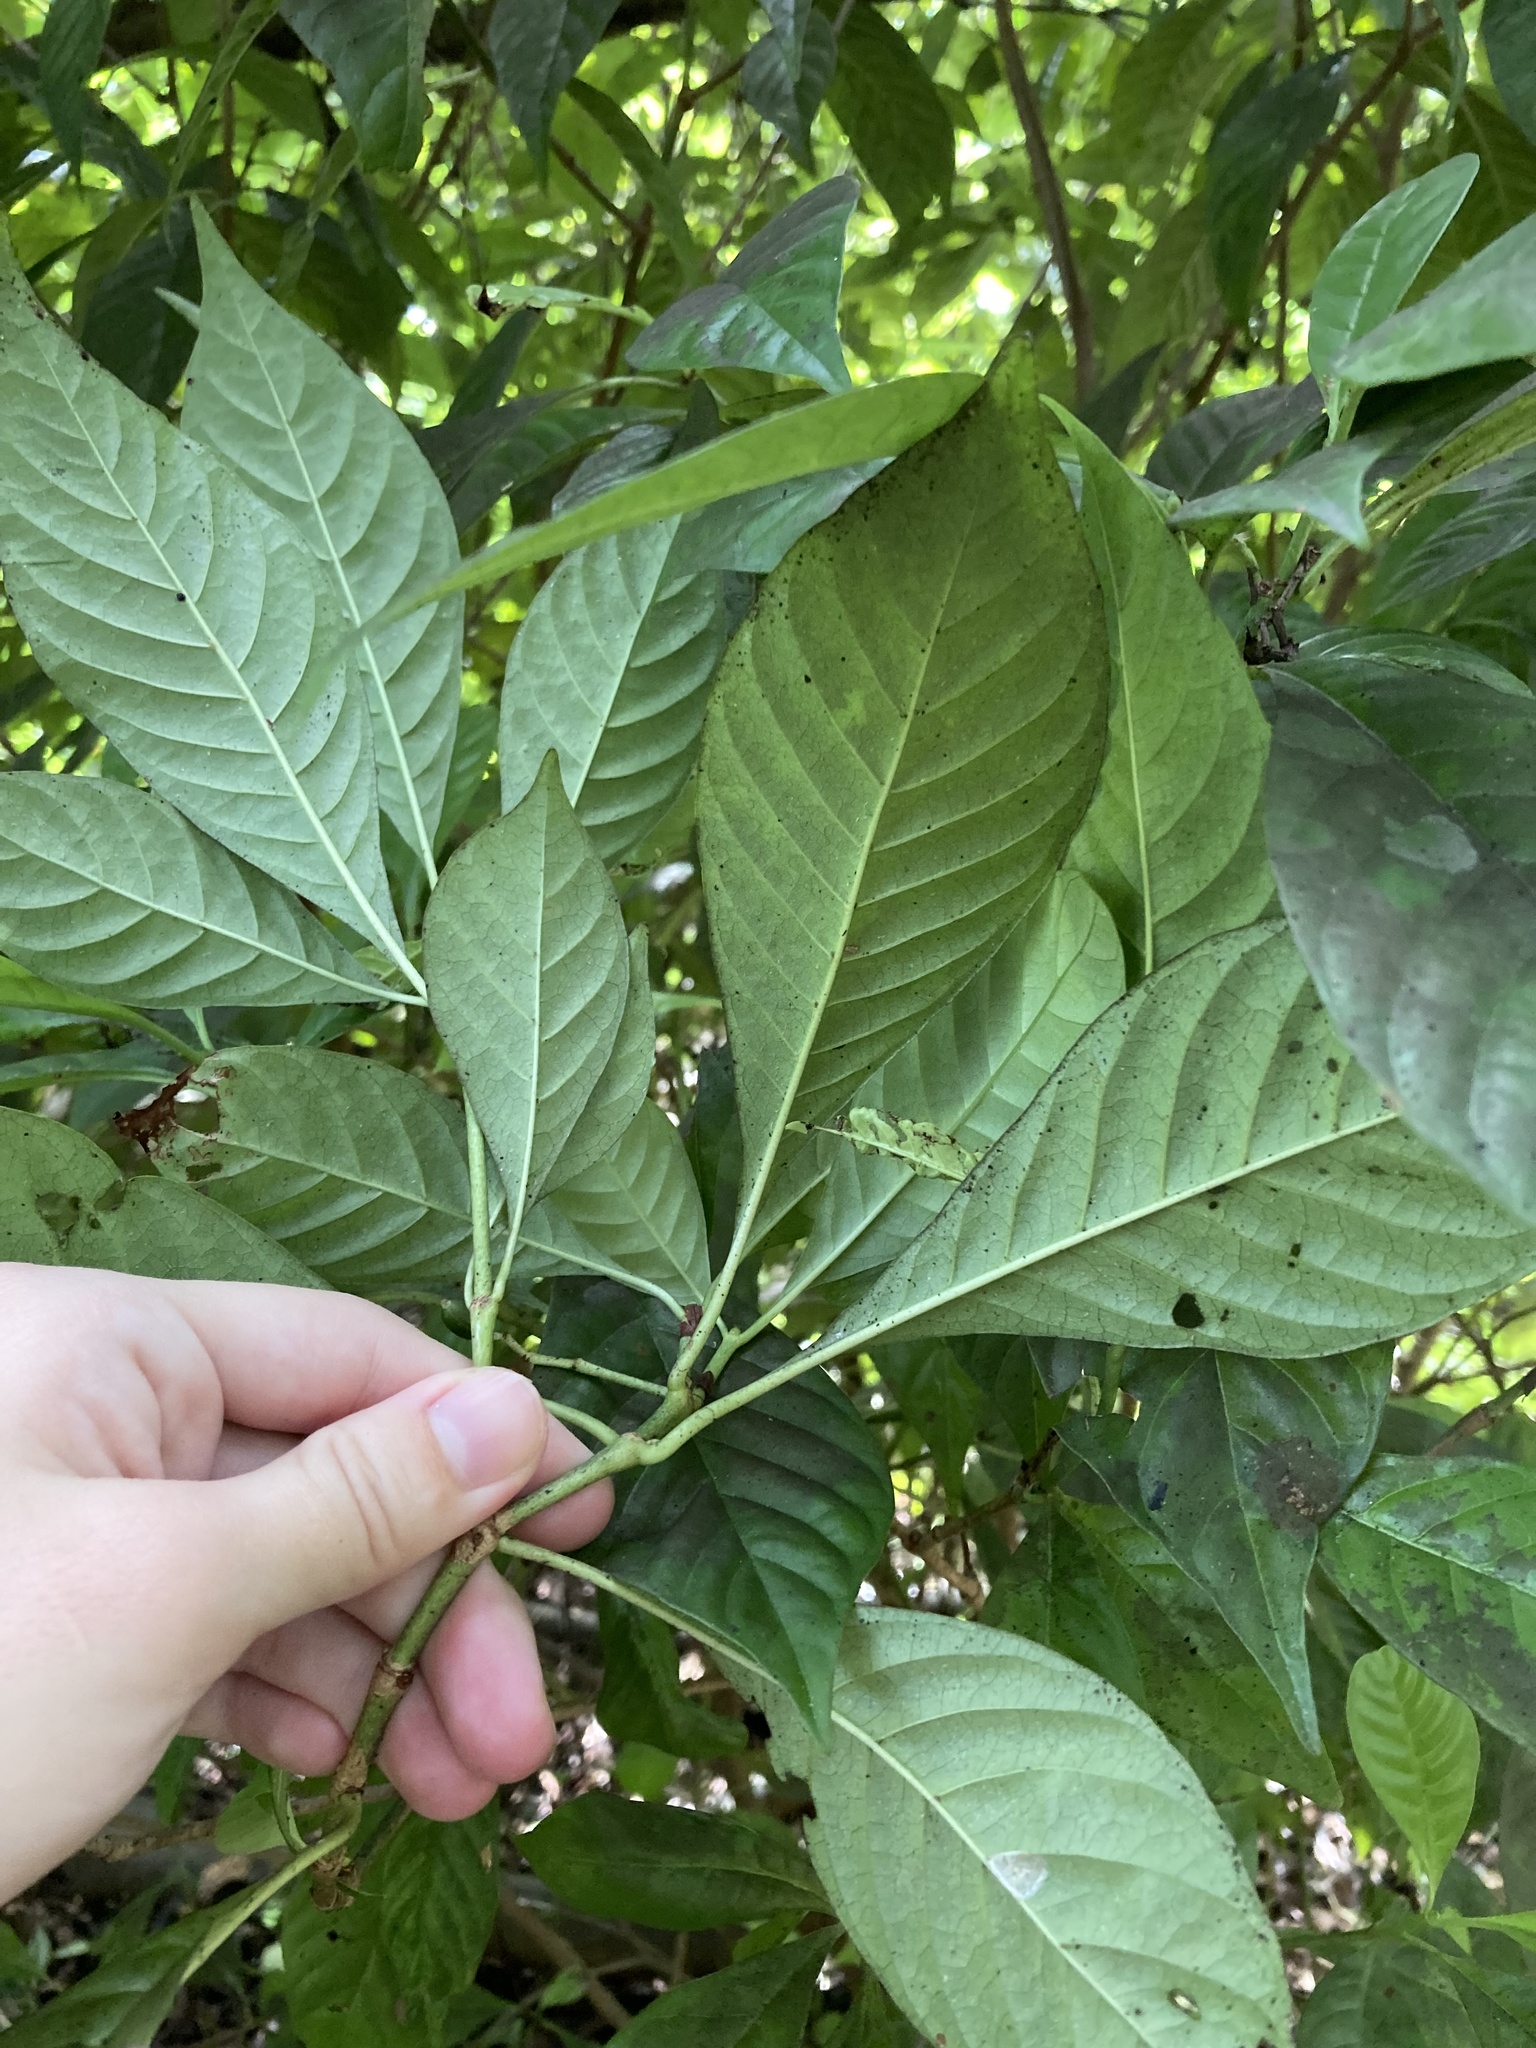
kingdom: Plantae
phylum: Tracheophyta
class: Magnoliopsida
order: Gentianales
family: Rubiaceae
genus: Psychotria
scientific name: Psychotria nervosa
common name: Bastard cankerberry
